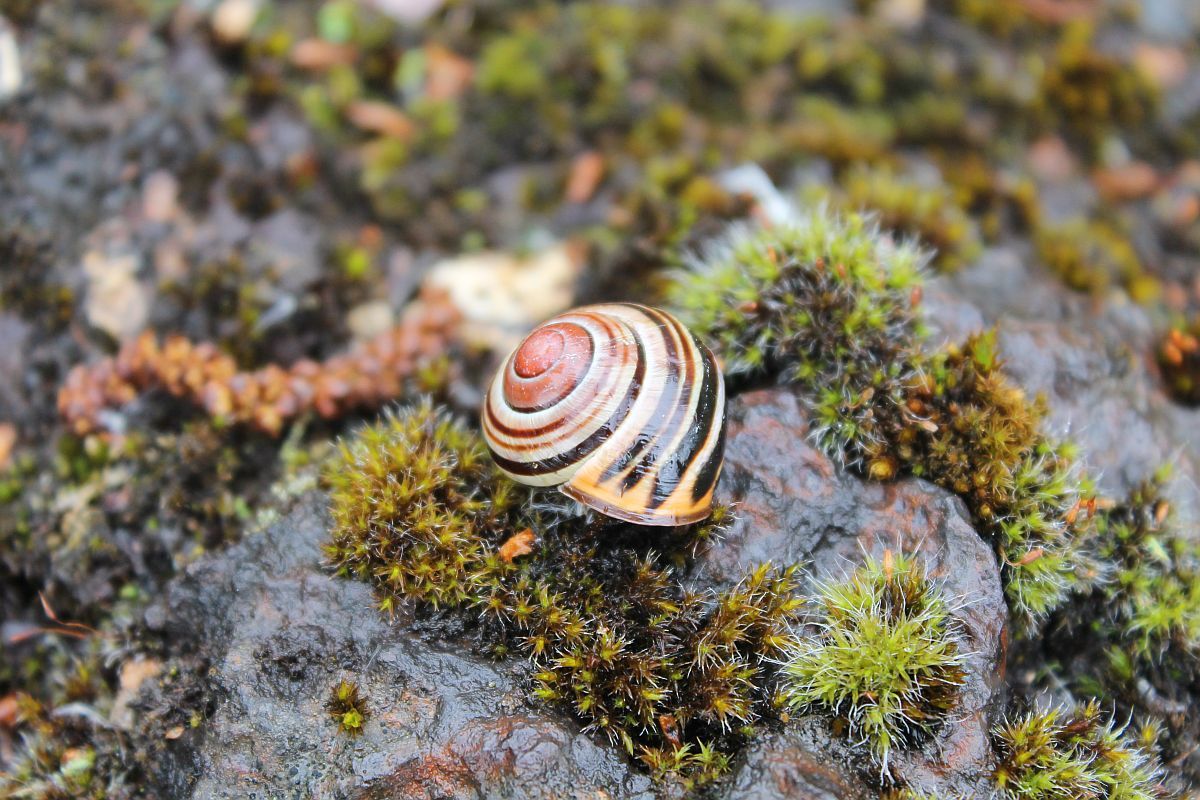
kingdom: Animalia
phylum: Mollusca
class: Gastropoda
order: Stylommatophora
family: Helicidae
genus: Cepaea
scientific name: Cepaea nemoralis
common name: Grovesnail
